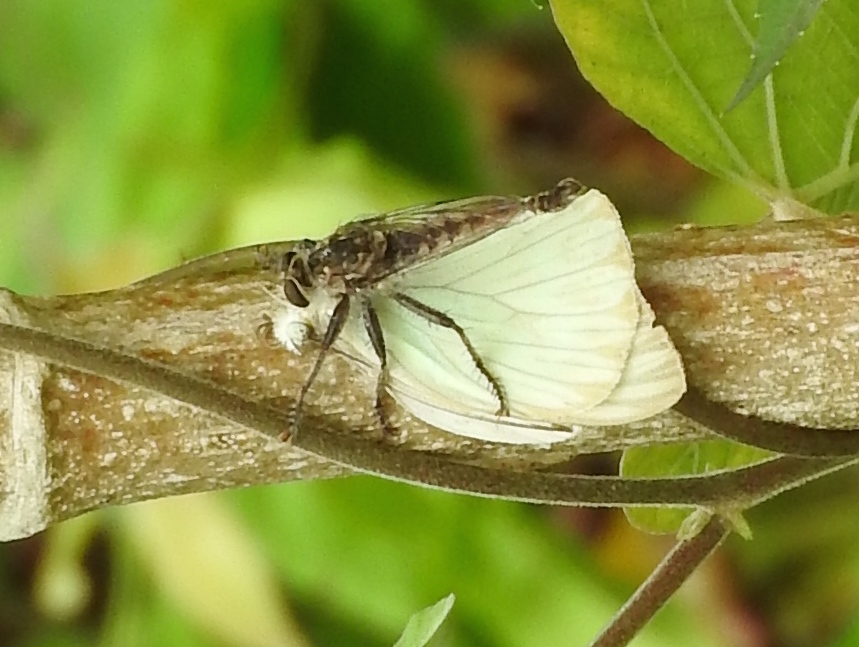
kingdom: Animalia
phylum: Arthropoda
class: Insecta
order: Diptera
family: Asilidae
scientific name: Asilidae
